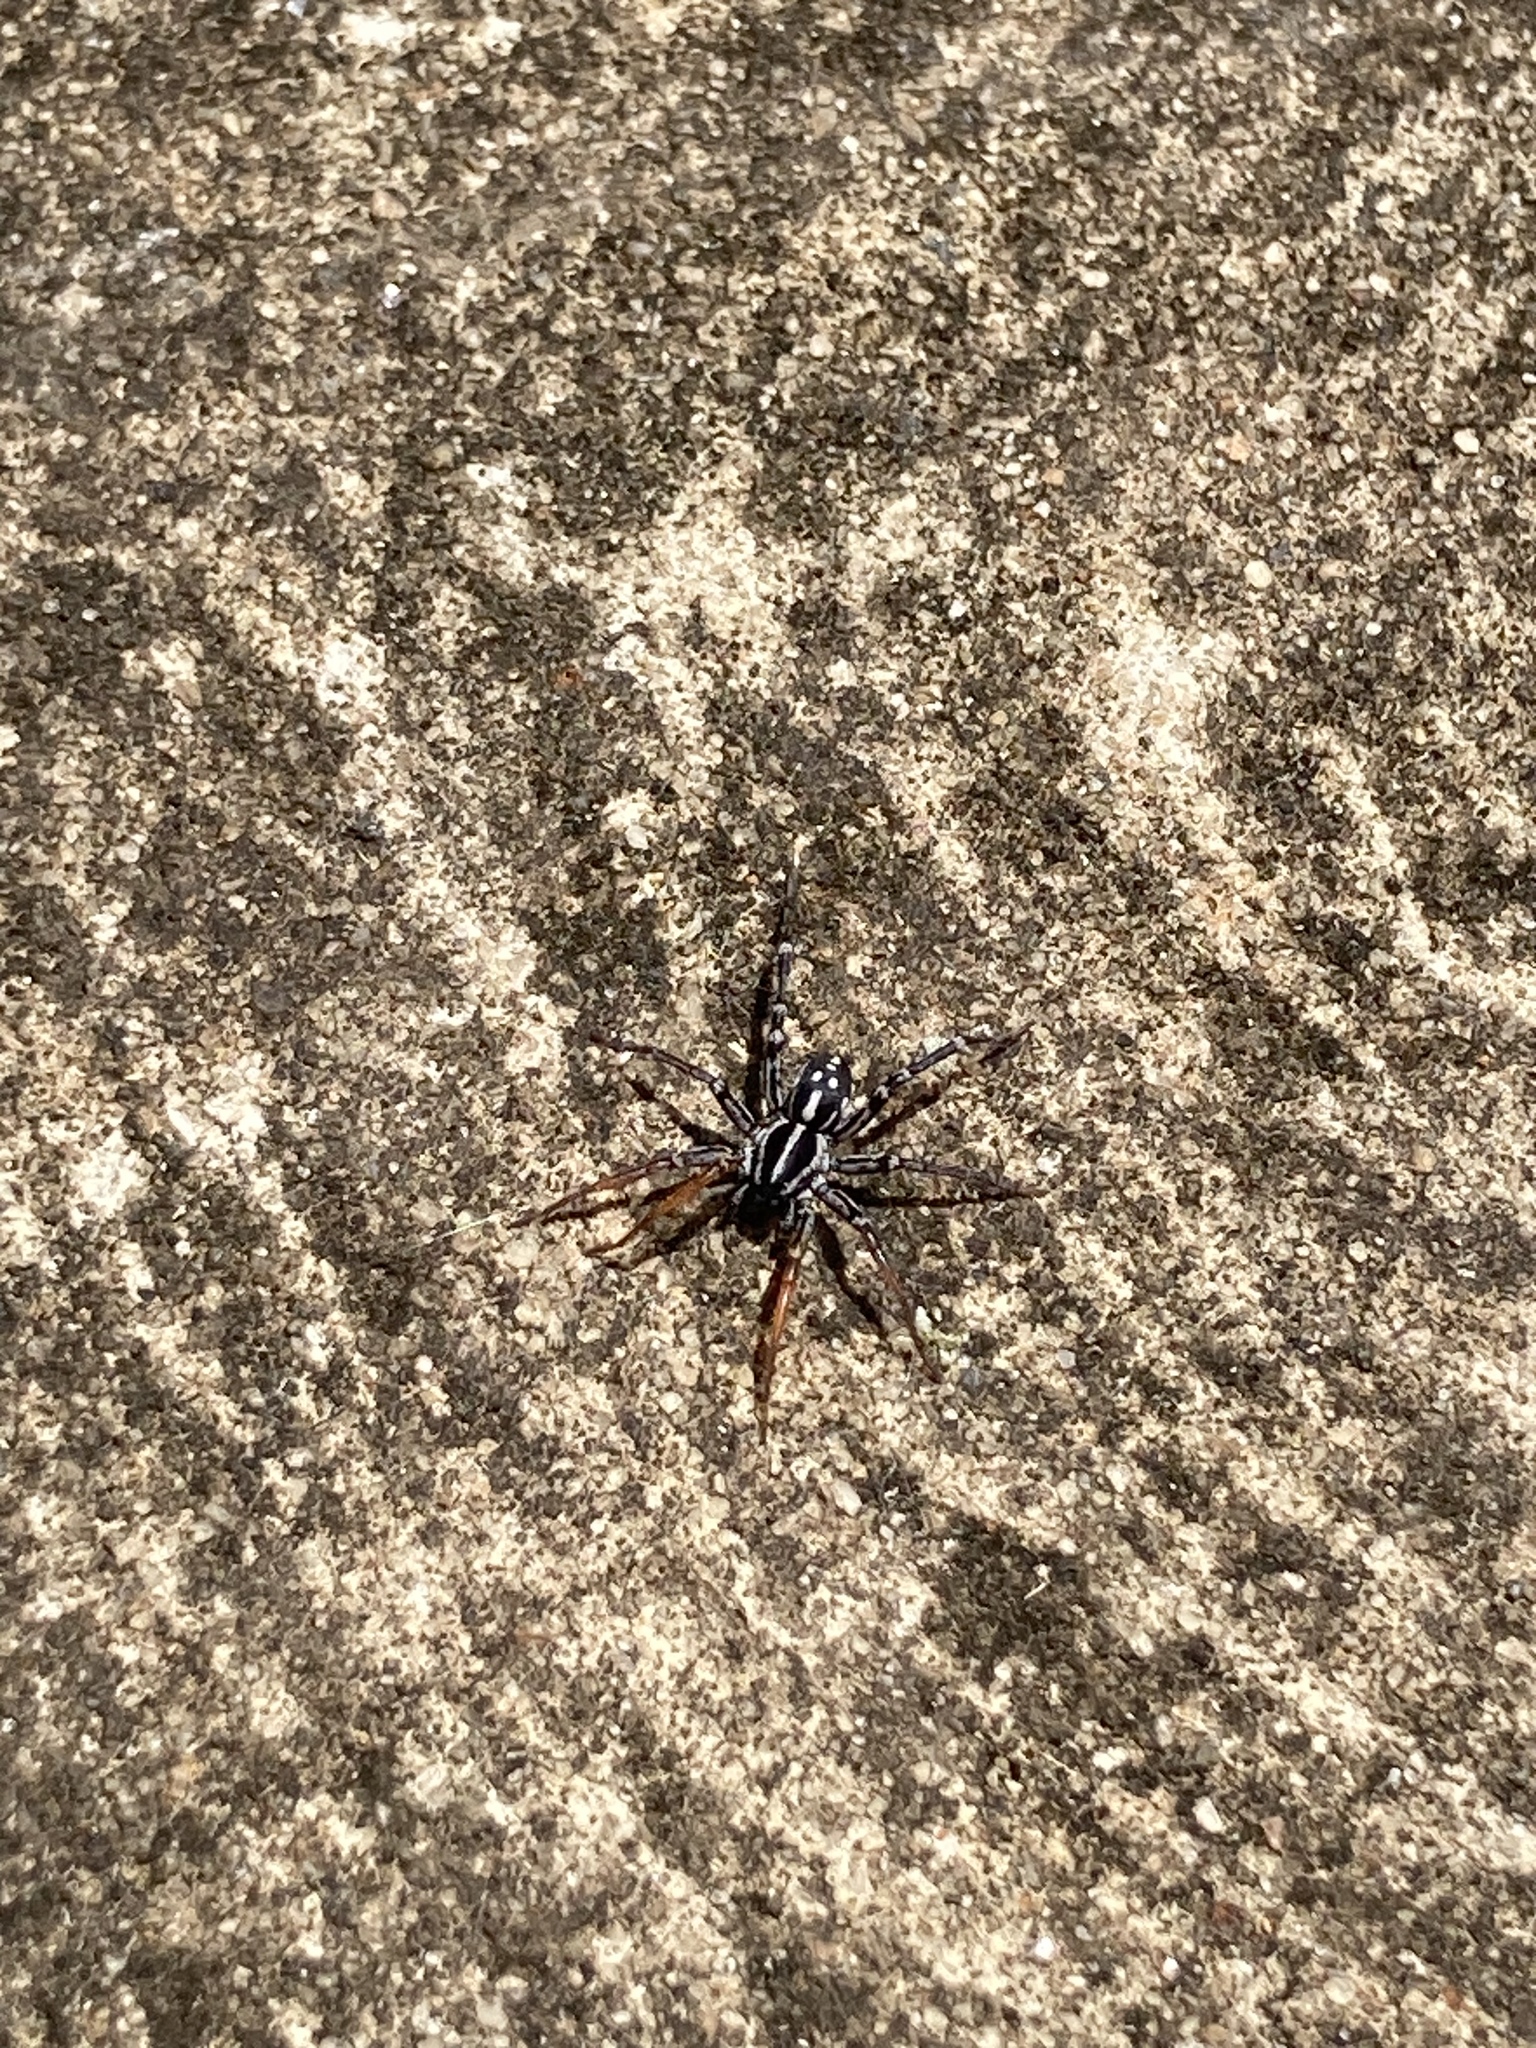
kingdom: Animalia
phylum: Arthropoda
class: Arachnida
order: Araneae
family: Corinnidae
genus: Nyssus
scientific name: Nyssus coloripes
